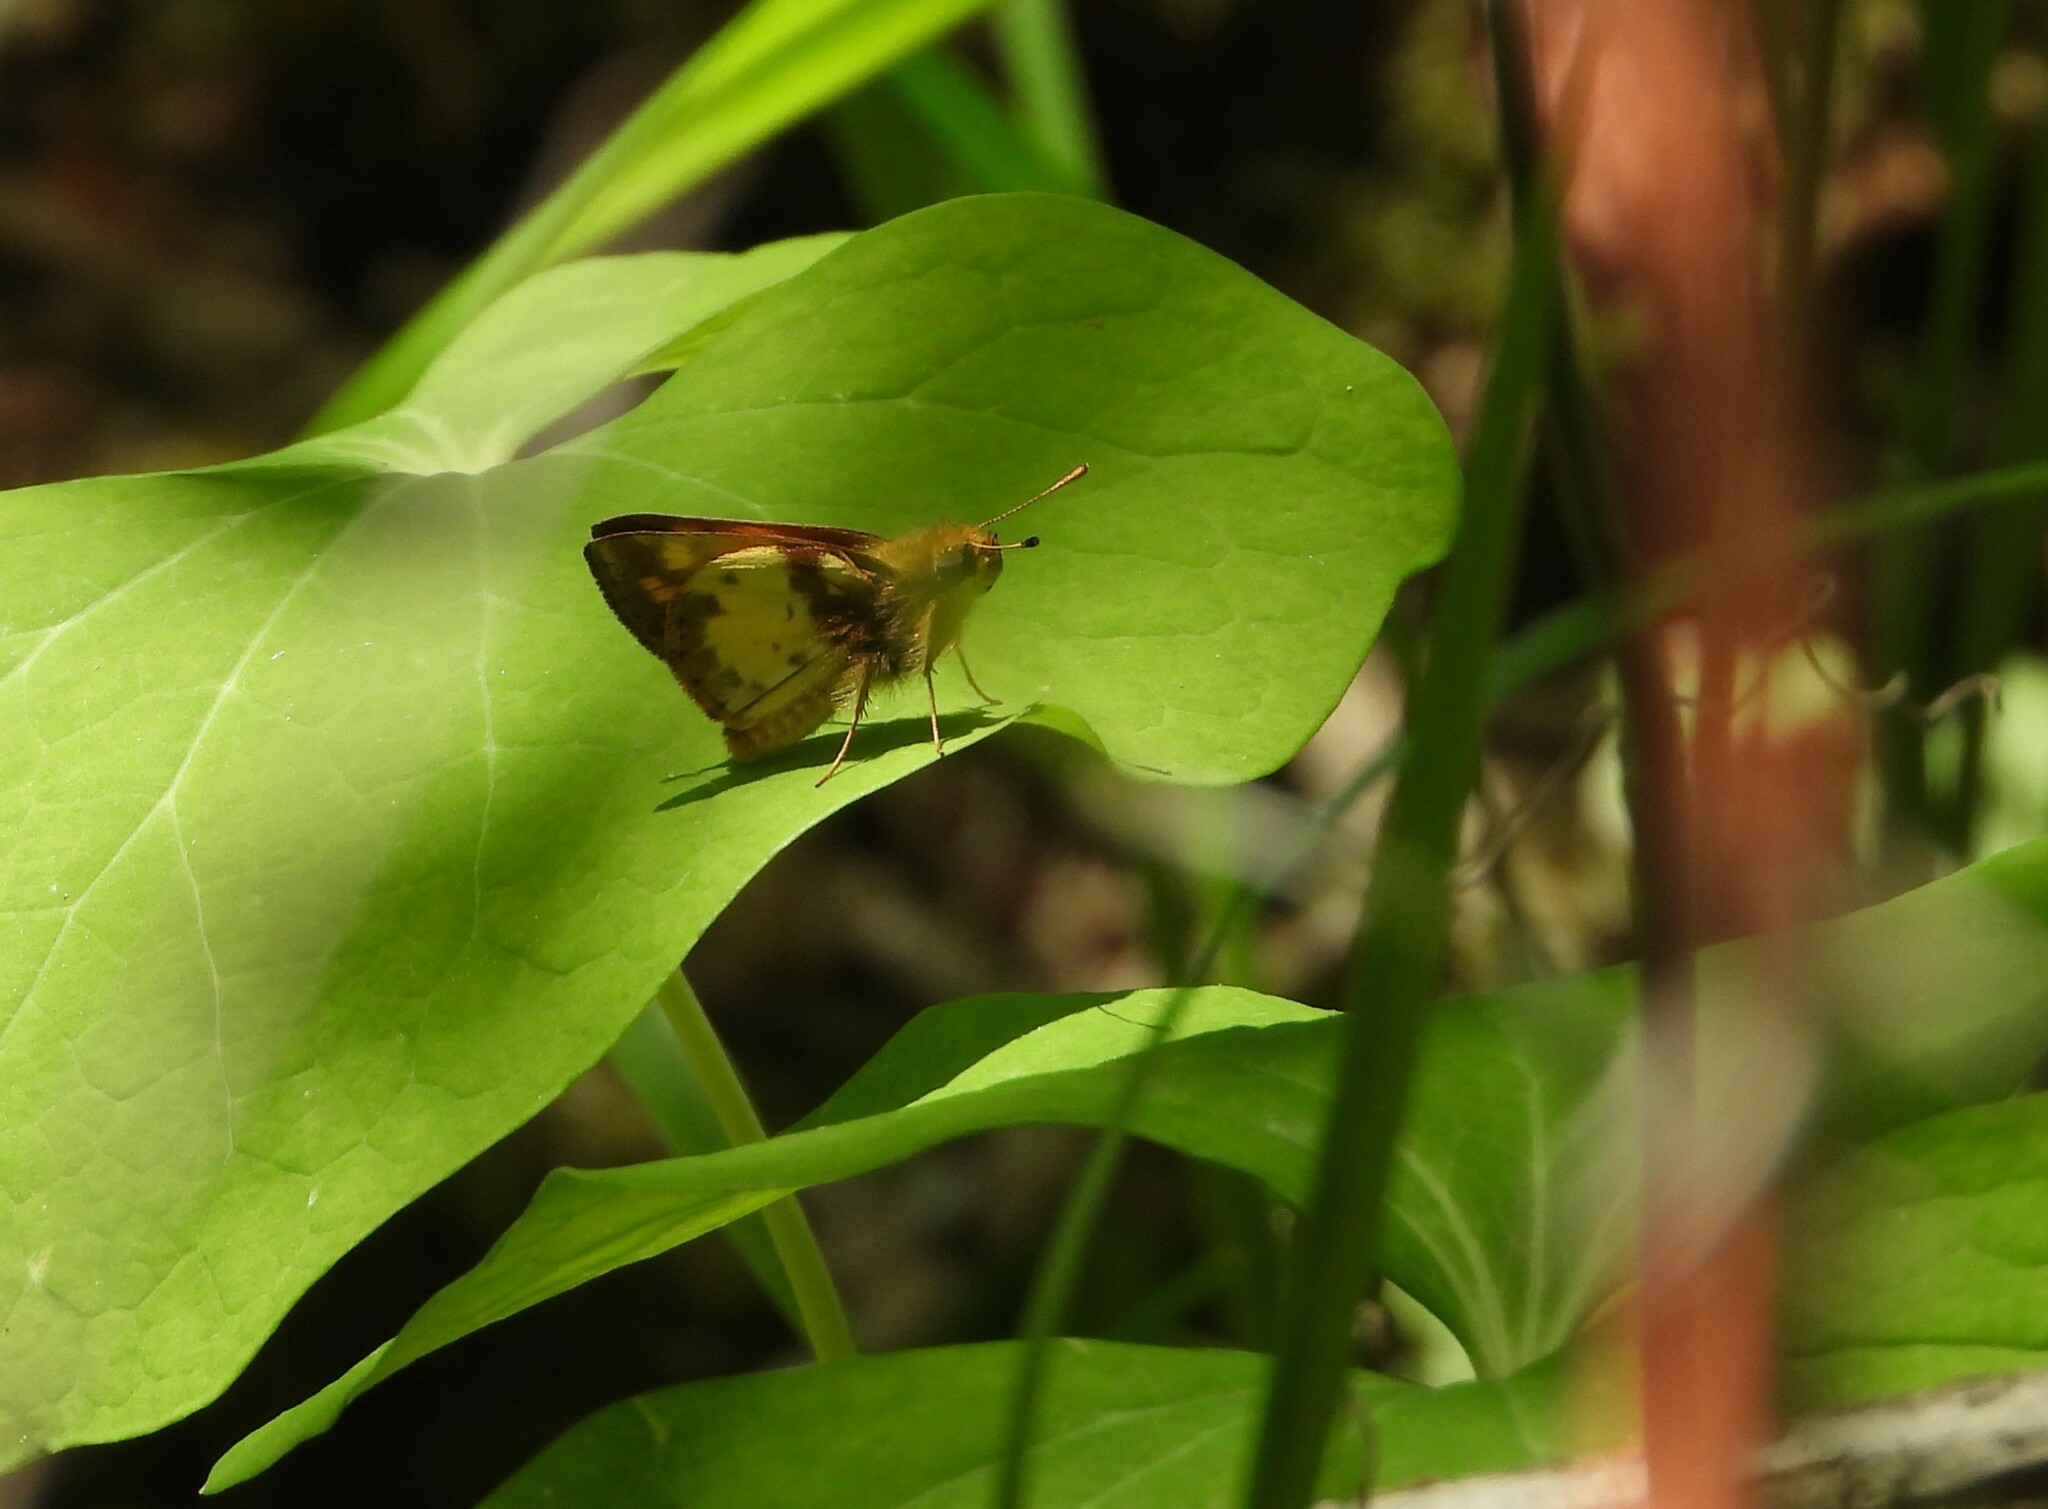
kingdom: Animalia
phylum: Arthropoda
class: Insecta
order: Lepidoptera
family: Hesperiidae
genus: Lon
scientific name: Lon zabulon
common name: Zabulon skipper
